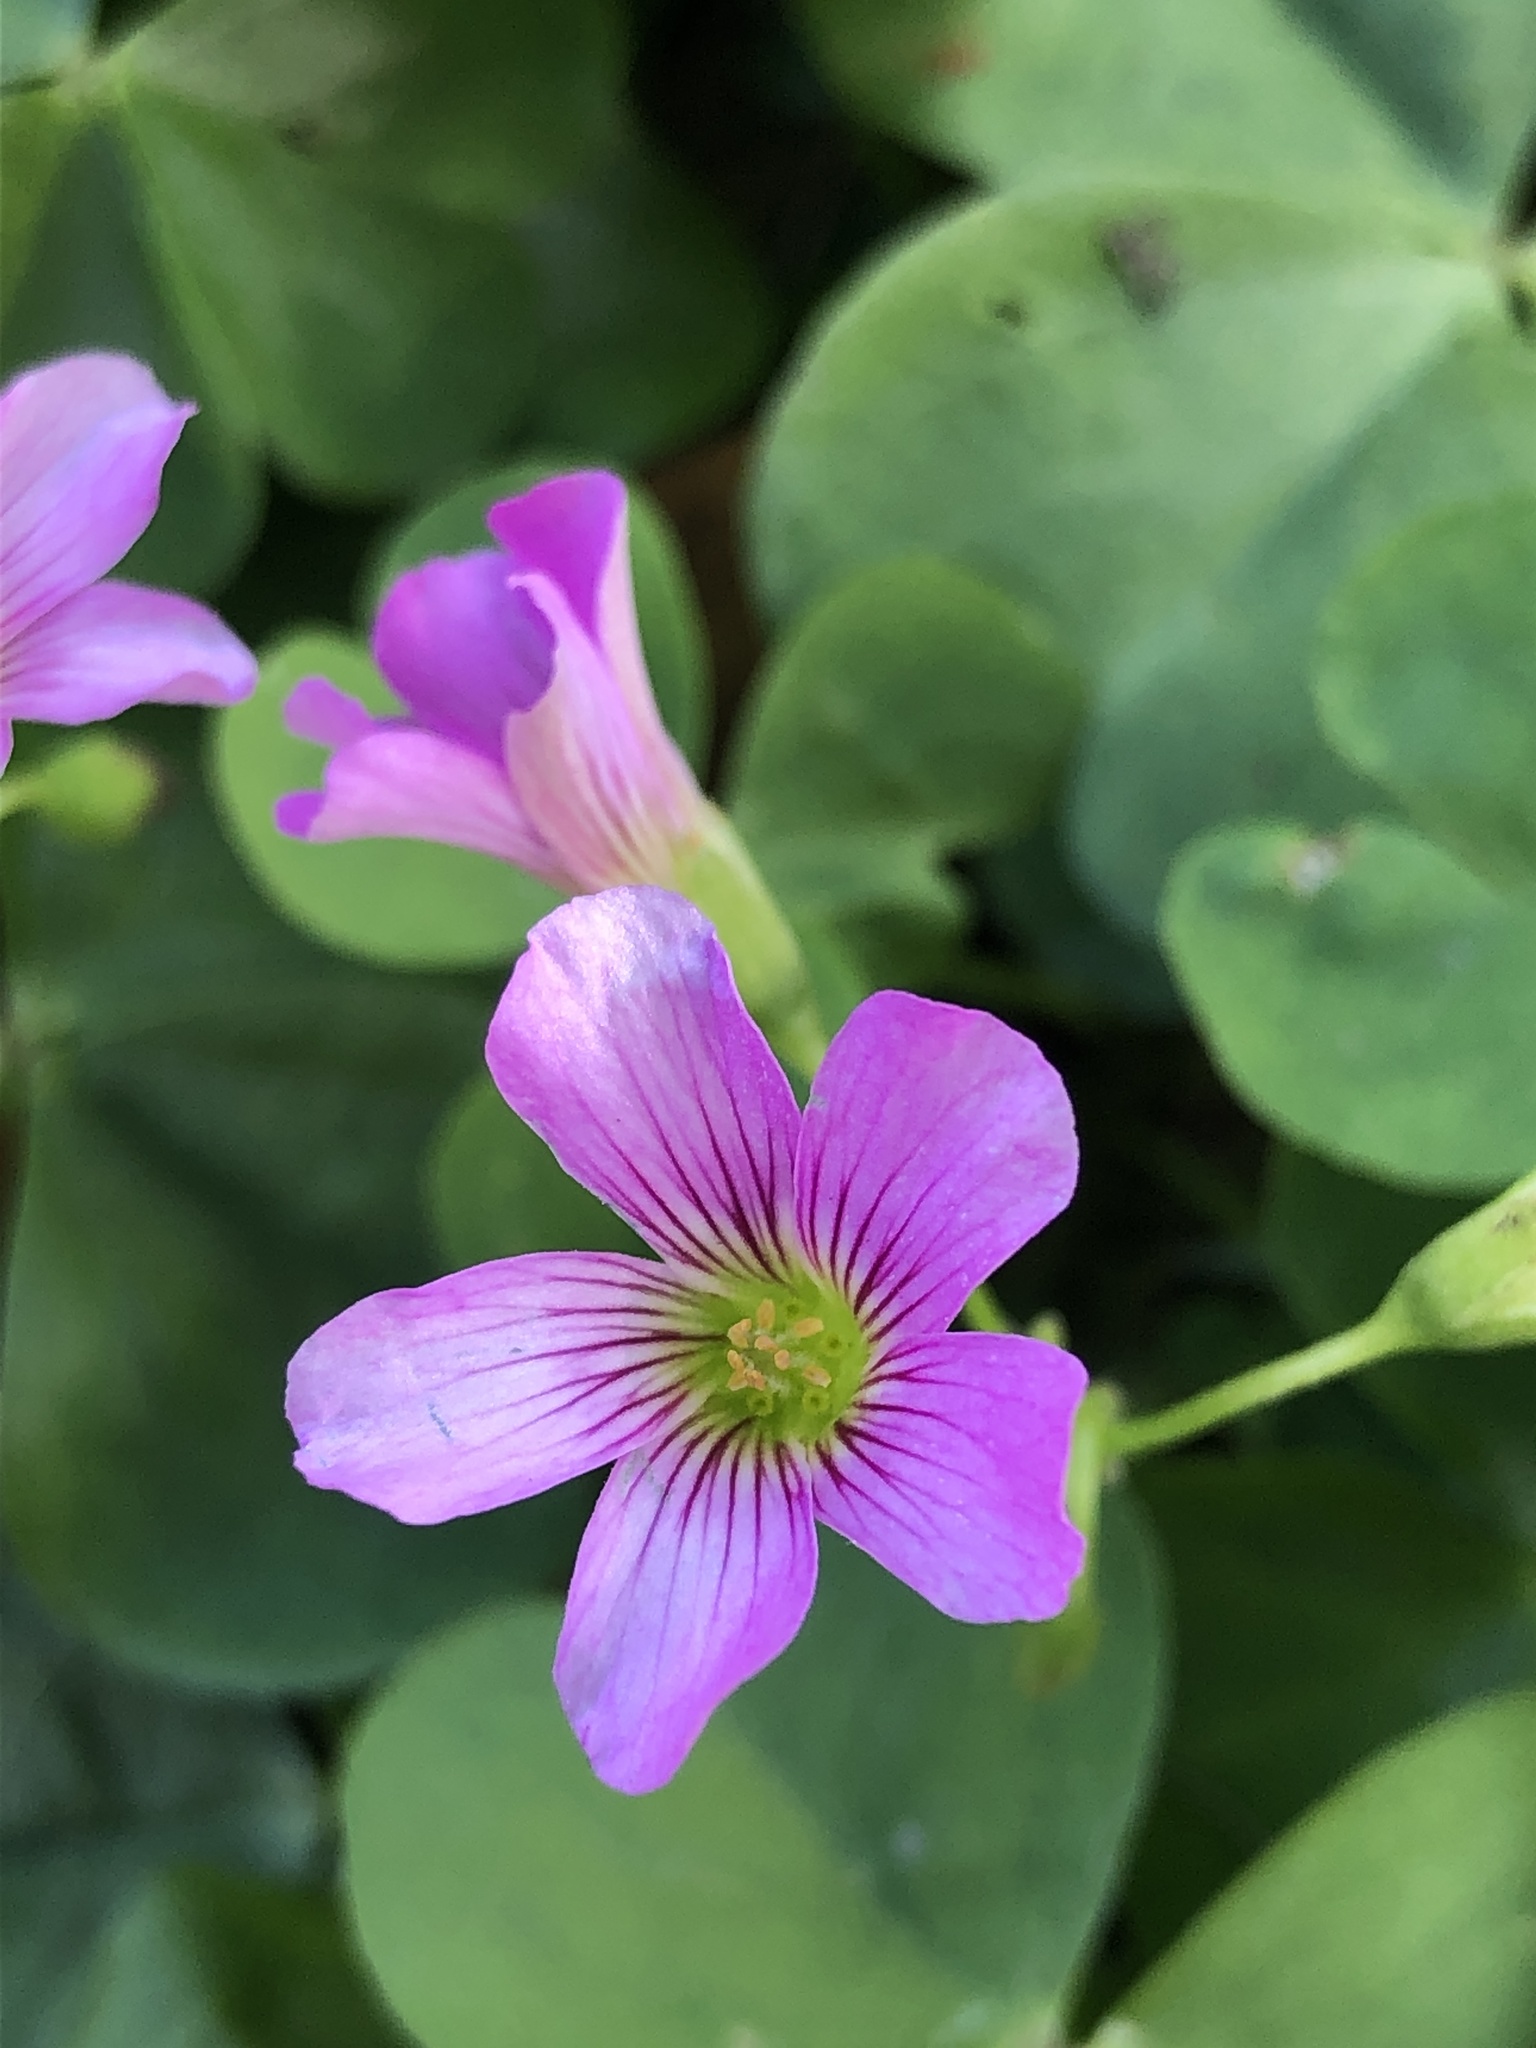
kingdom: Plantae
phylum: Tracheophyta
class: Magnoliopsida
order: Oxalidales
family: Oxalidaceae
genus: Oxalis
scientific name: Oxalis debilis
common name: Large-flowered pink-sorrel
